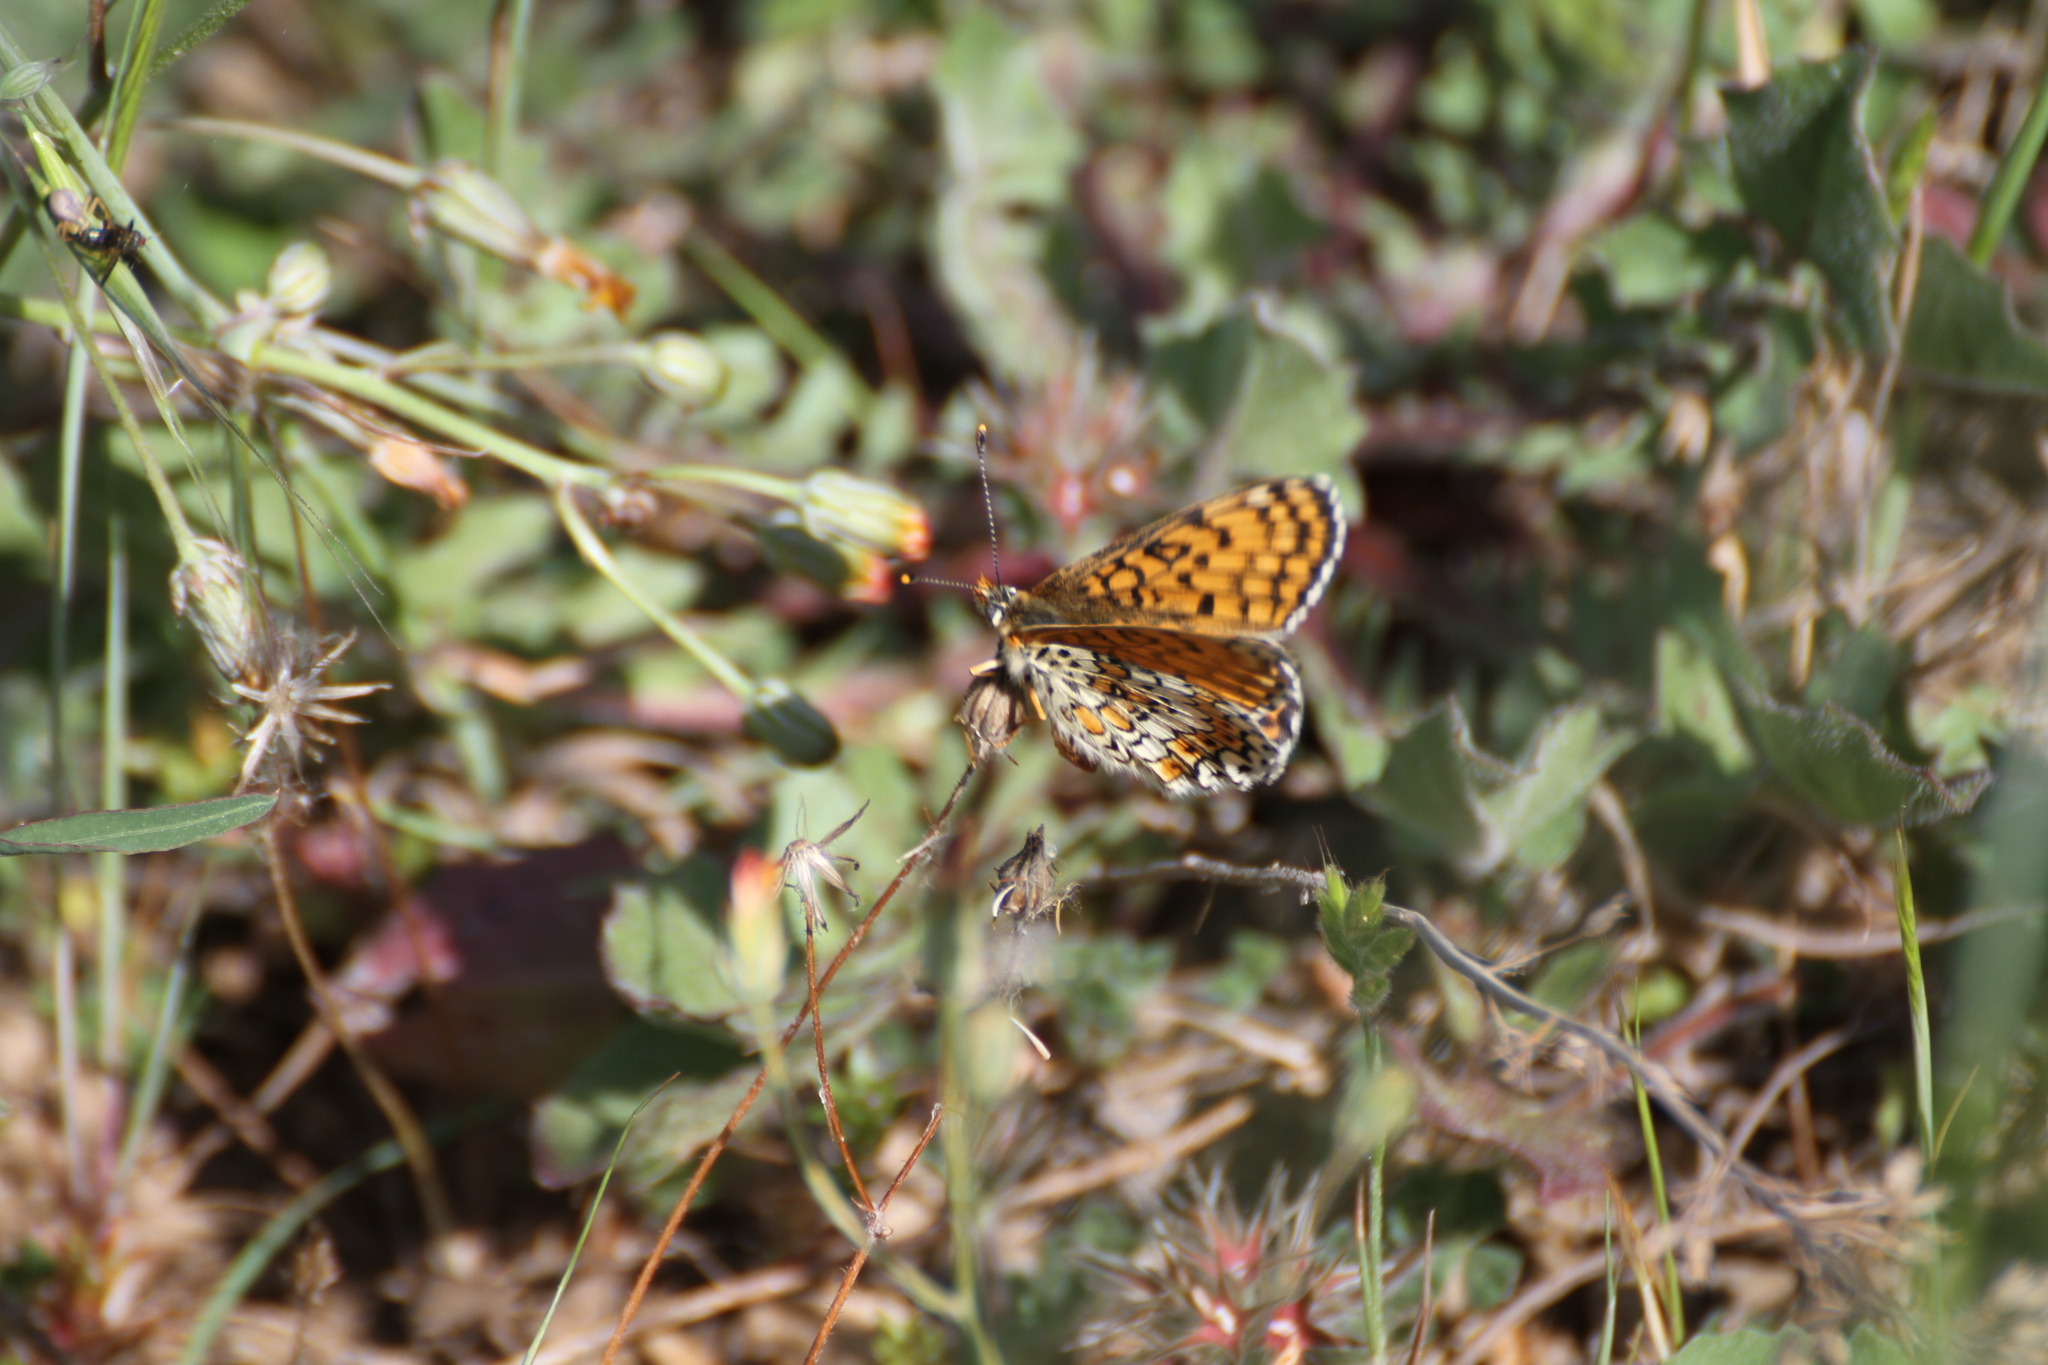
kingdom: Animalia
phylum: Arthropoda
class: Insecta
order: Lepidoptera
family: Nymphalidae
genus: Melitaea
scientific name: Melitaea cinxia
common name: Glanville fritillary
